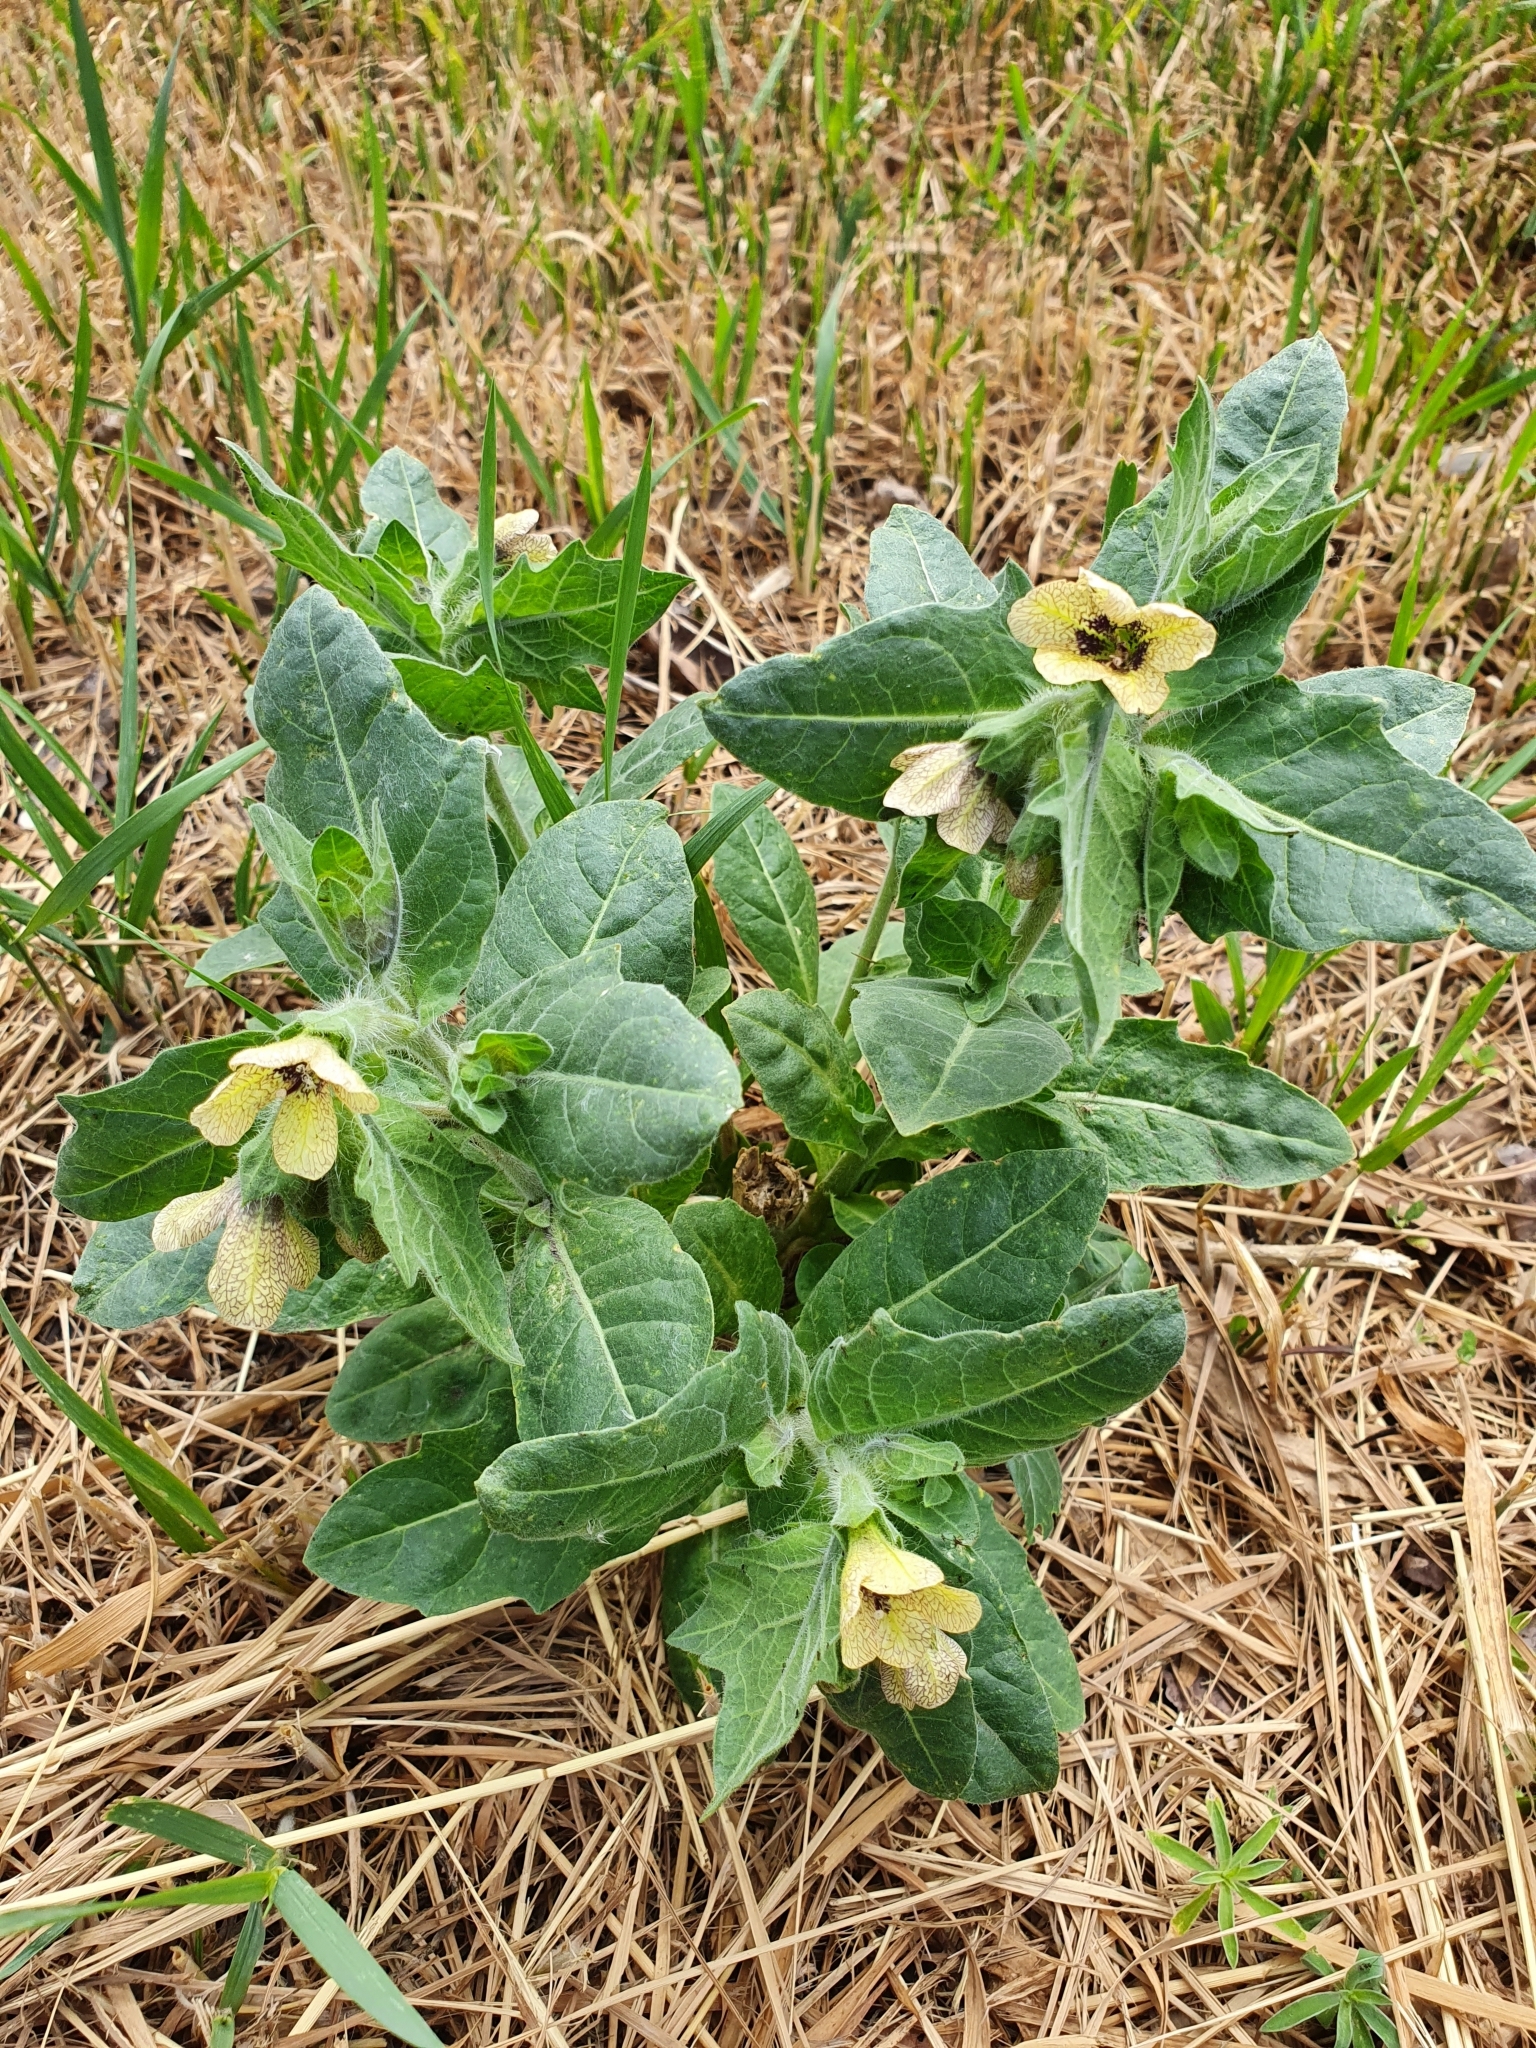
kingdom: Plantae
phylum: Tracheophyta
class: Magnoliopsida
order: Solanales
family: Solanaceae
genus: Hyoscyamus
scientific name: Hyoscyamus niger
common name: Henbane
